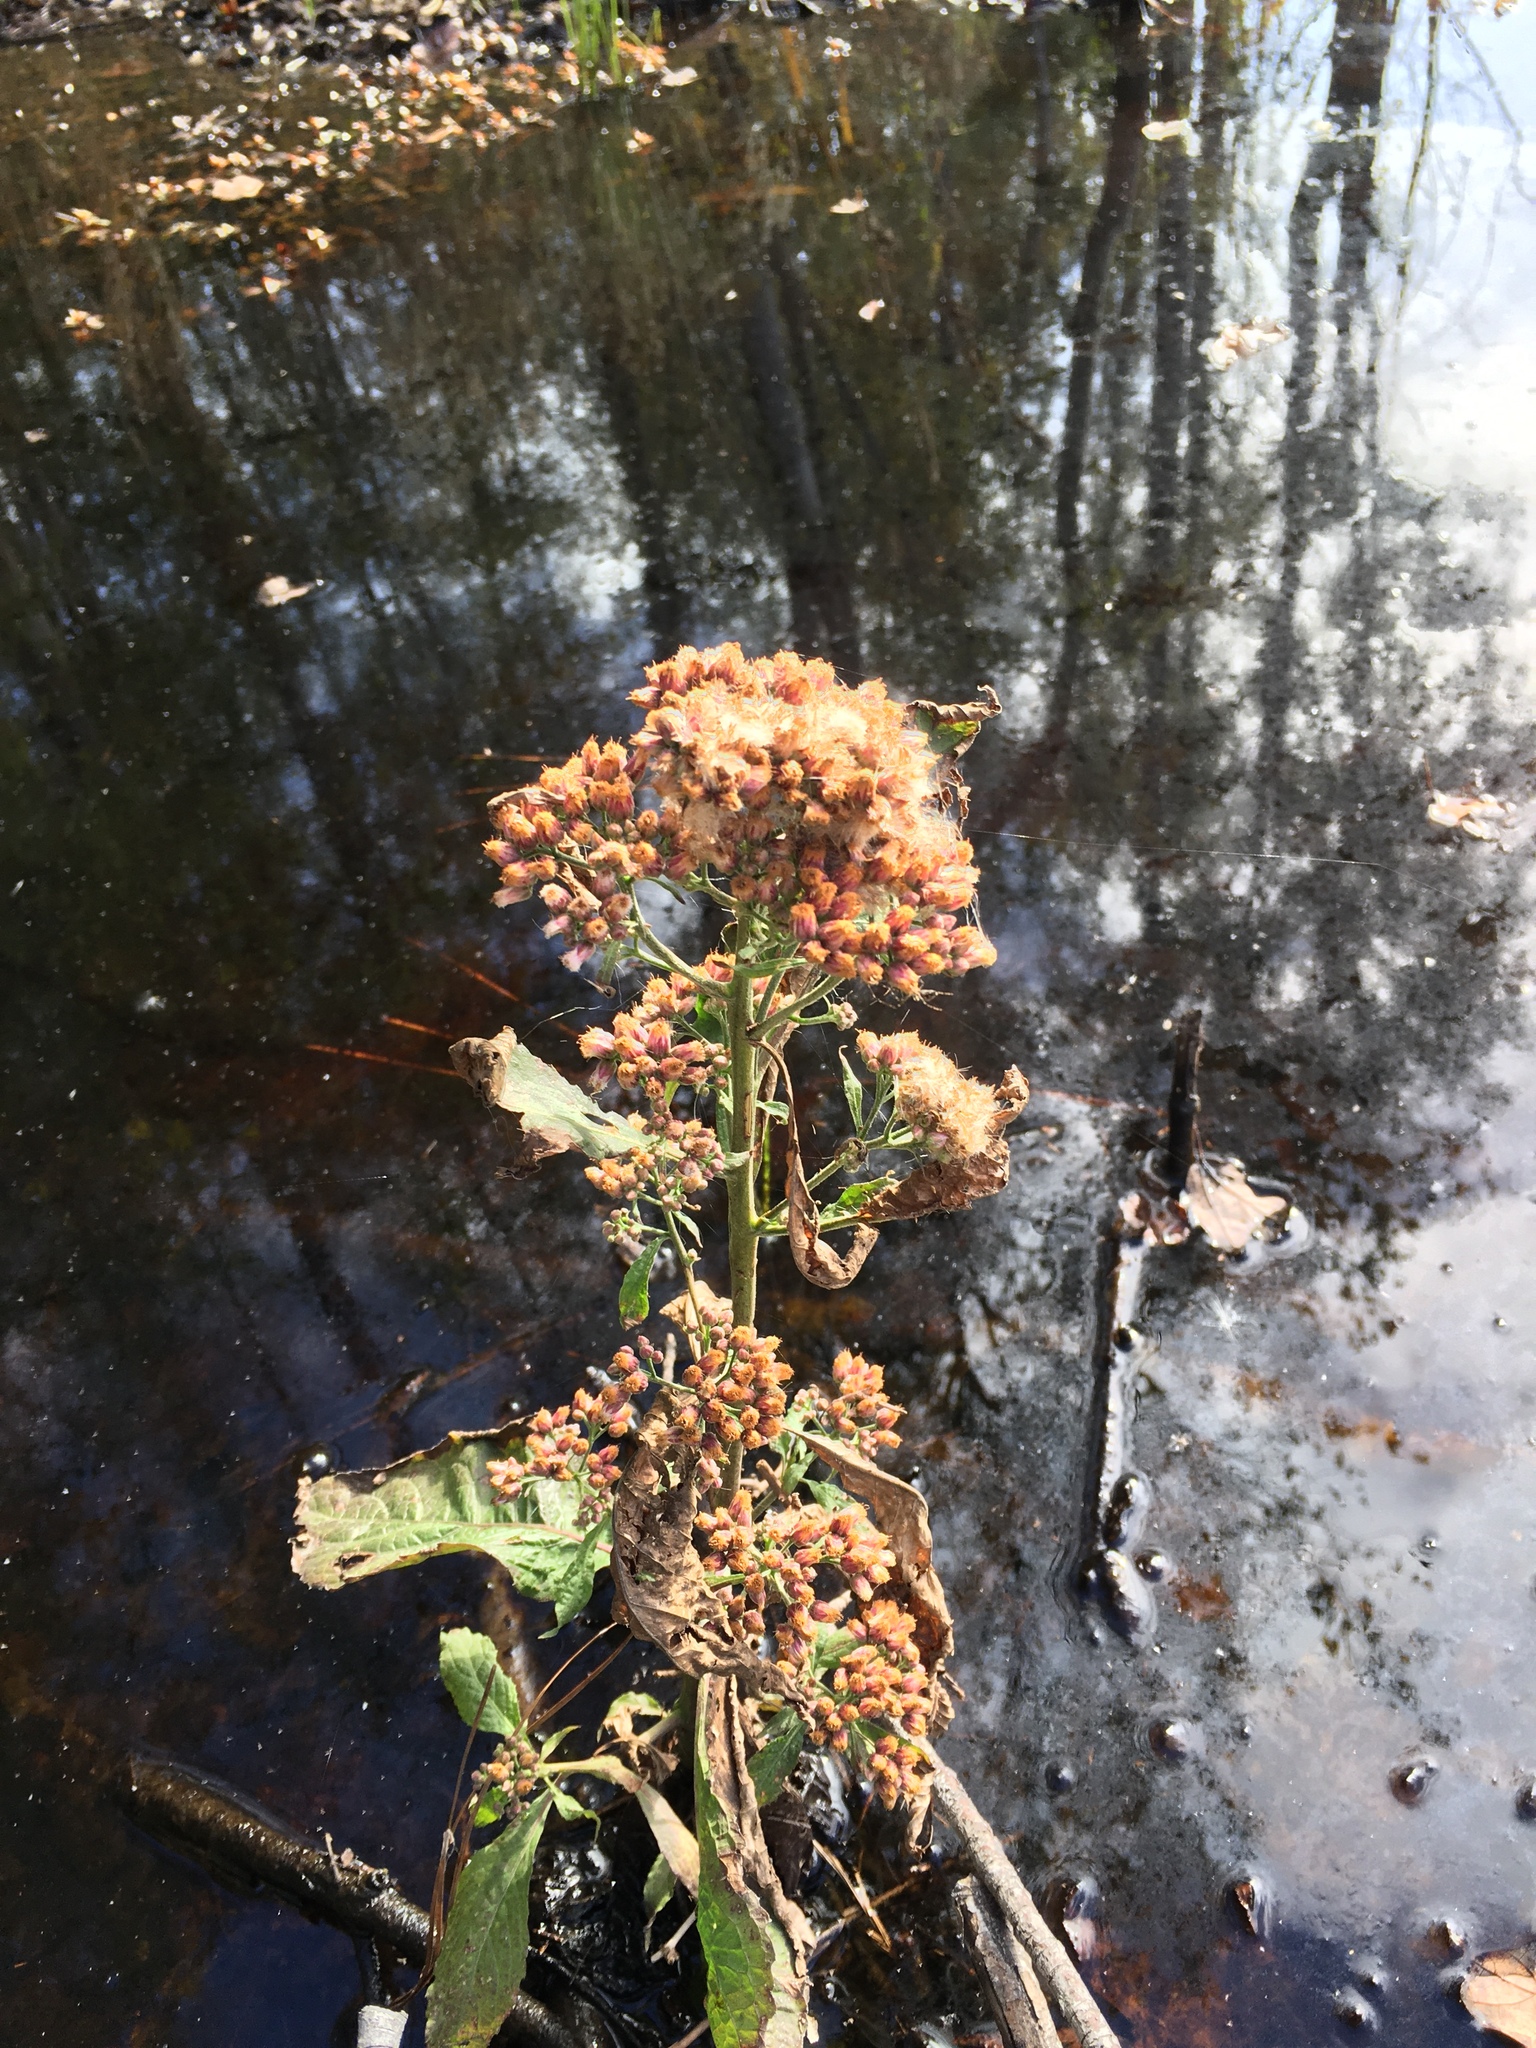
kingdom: Plantae
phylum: Tracheophyta
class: Magnoliopsida
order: Asterales
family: Asteraceae
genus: Pluchea
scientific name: Pluchea camphorata
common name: Camphor pluchea
